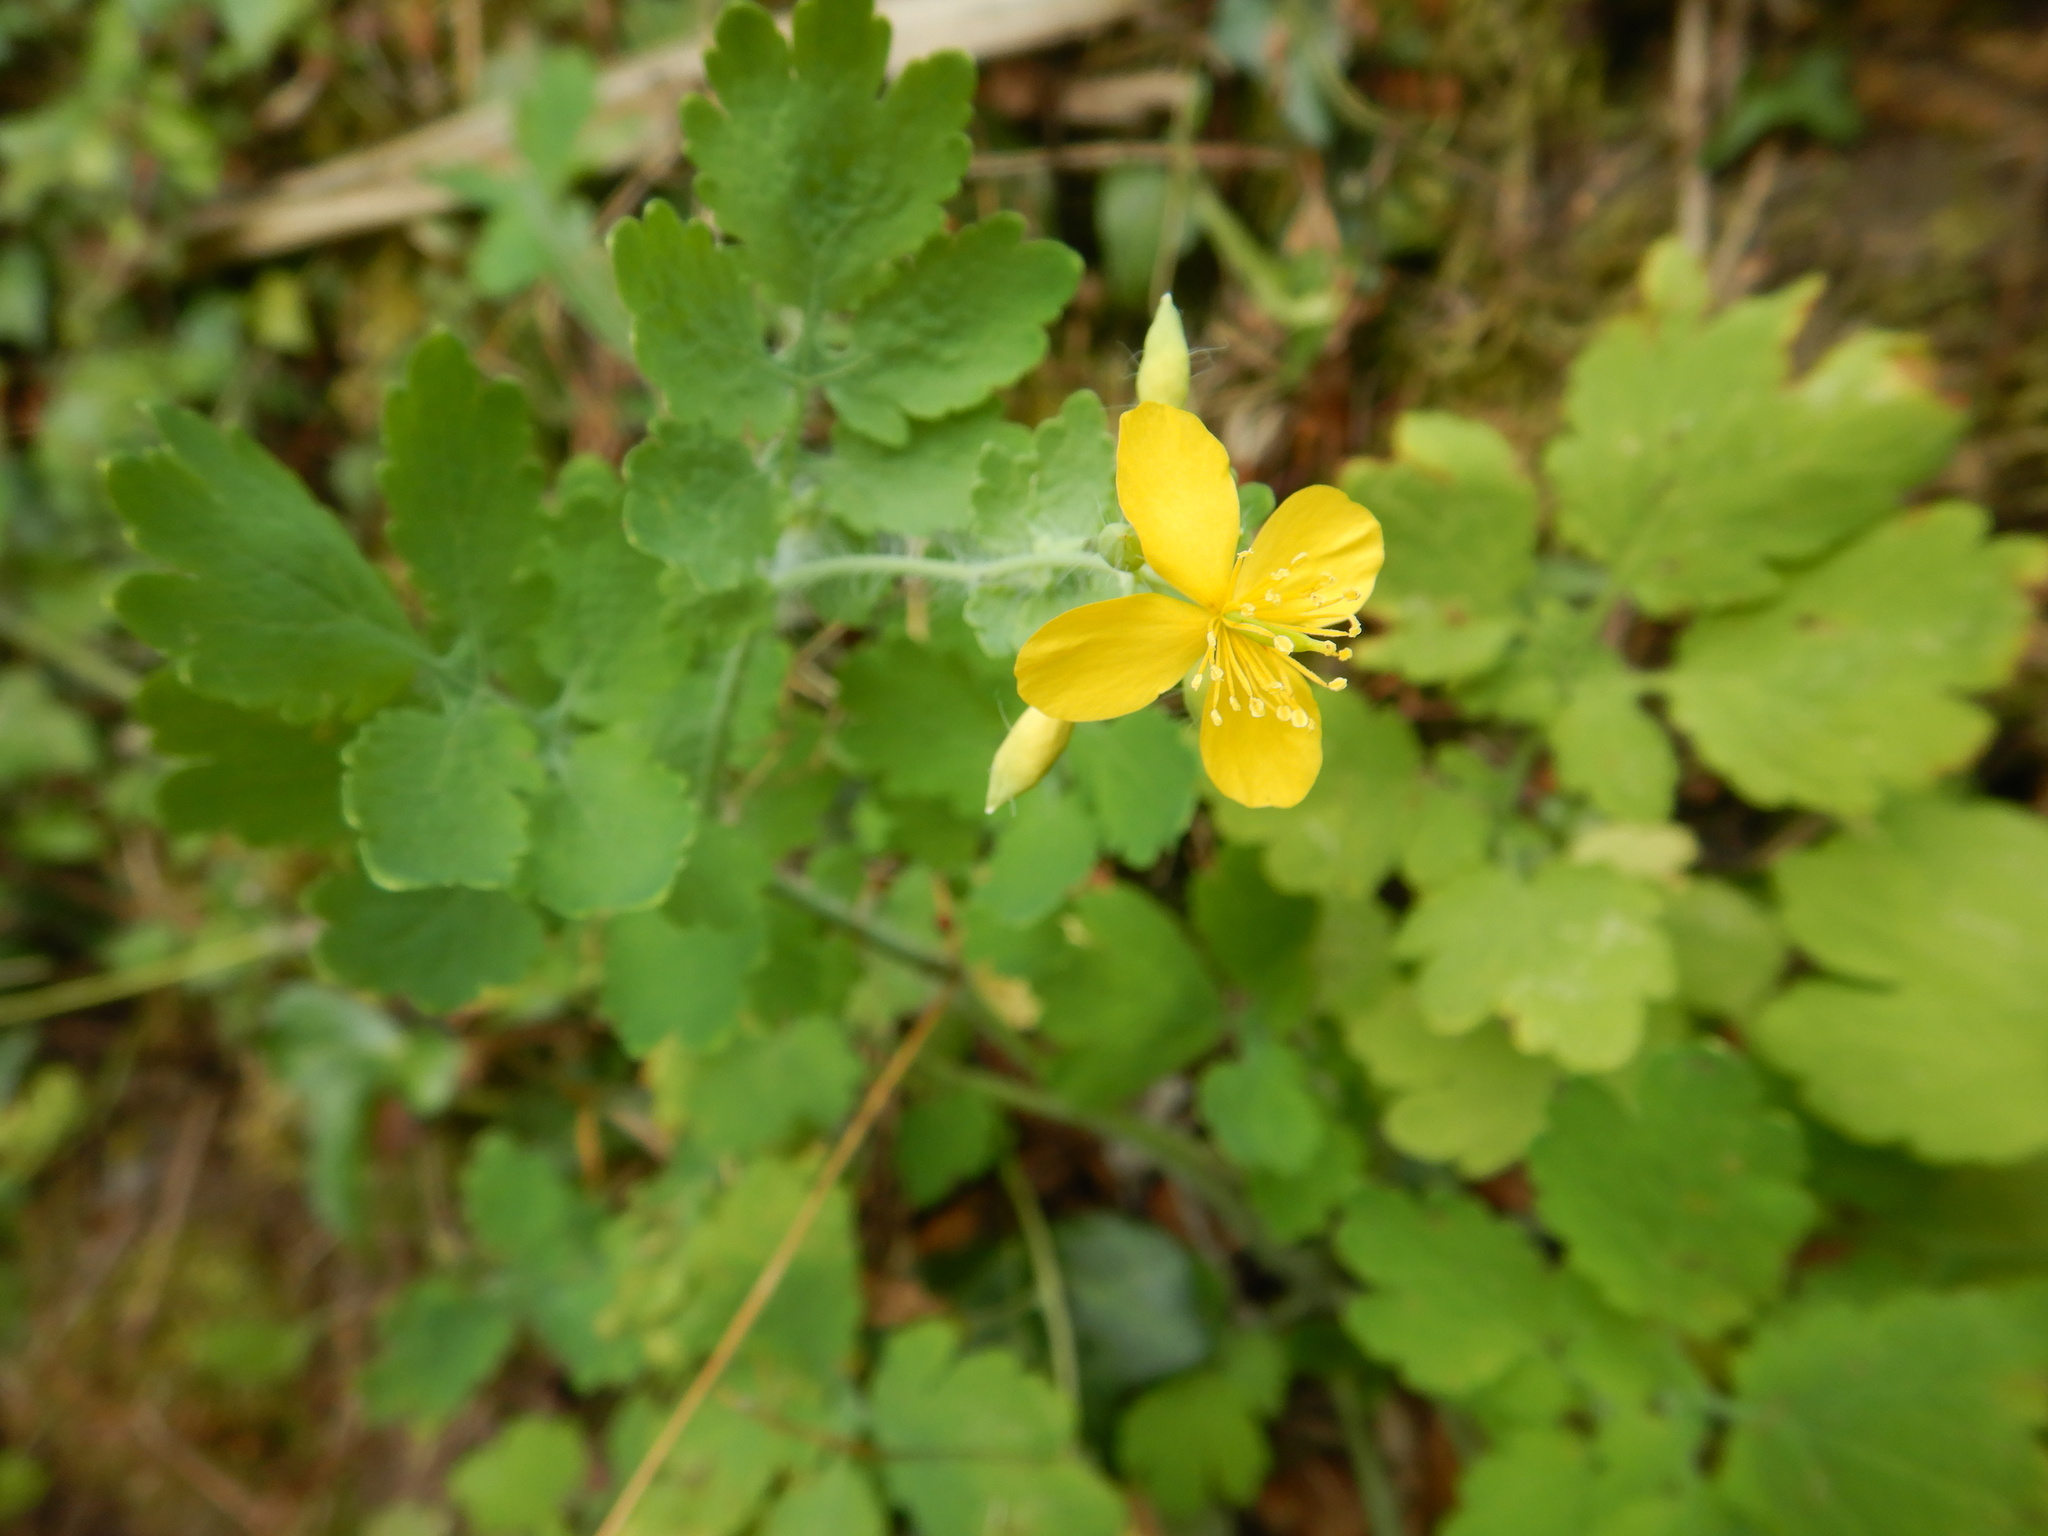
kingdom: Plantae
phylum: Tracheophyta
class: Magnoliopsida
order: Ranunculales
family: Papaveraceae
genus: Chelidonium
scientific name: Chelidonium majus
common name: Greater celandine
